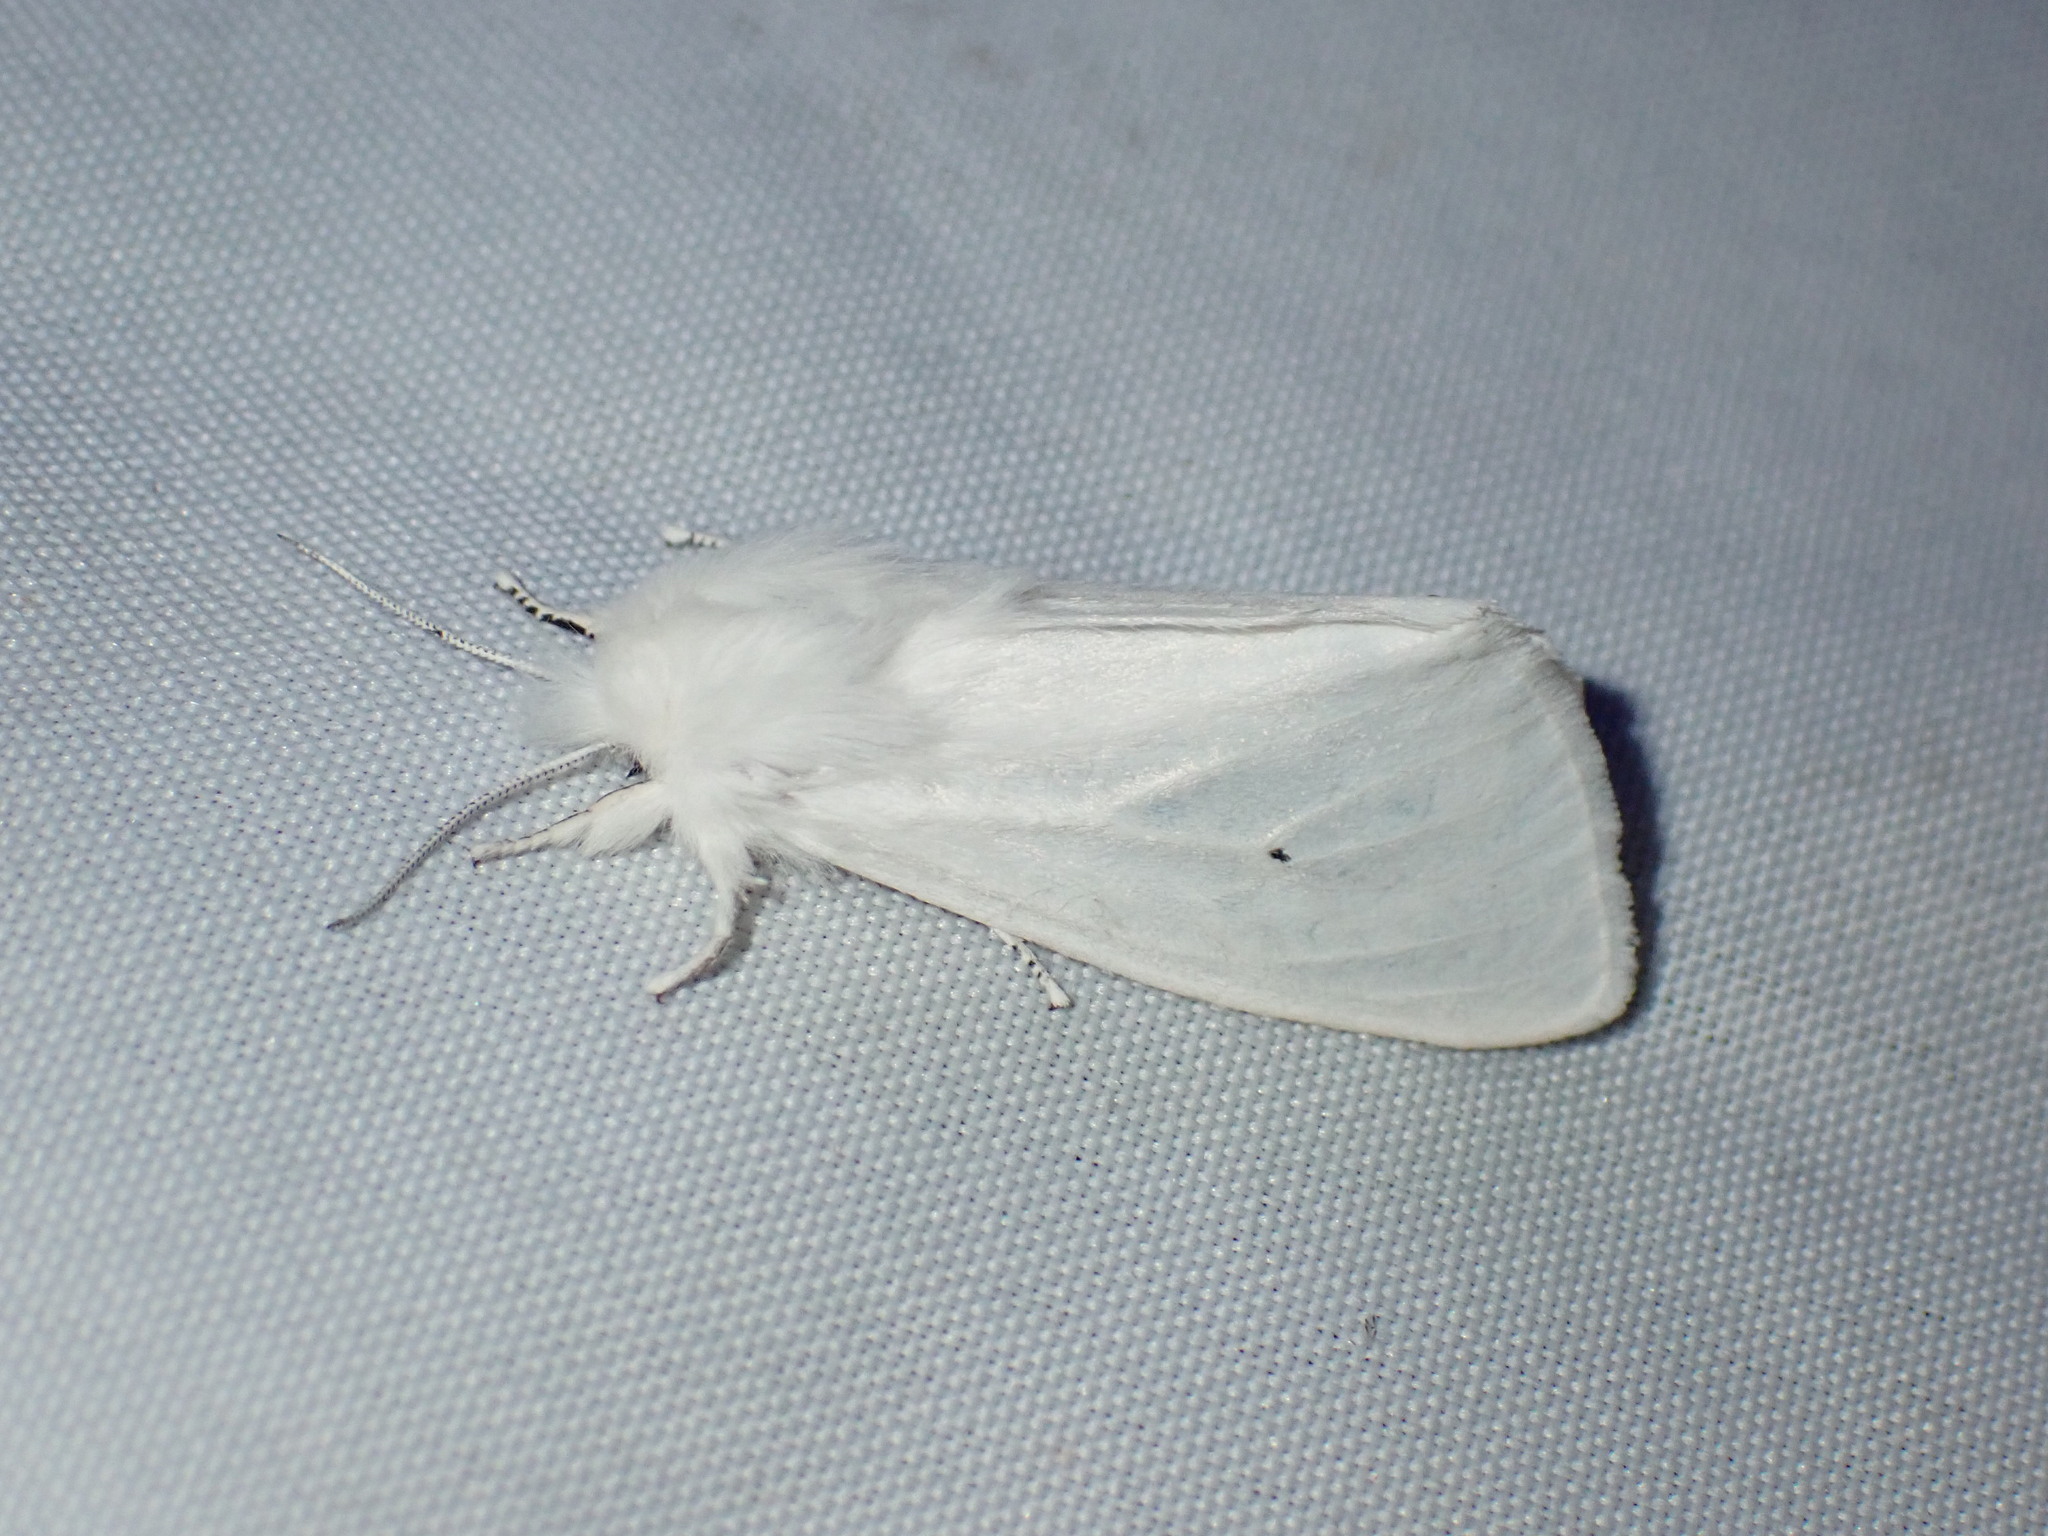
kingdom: Animalia
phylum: Arthropoda
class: Insecta
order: Lepidoptera
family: Erebidae
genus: Spilosoma
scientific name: Spilosoma virginica
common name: Virginia tiger moth
